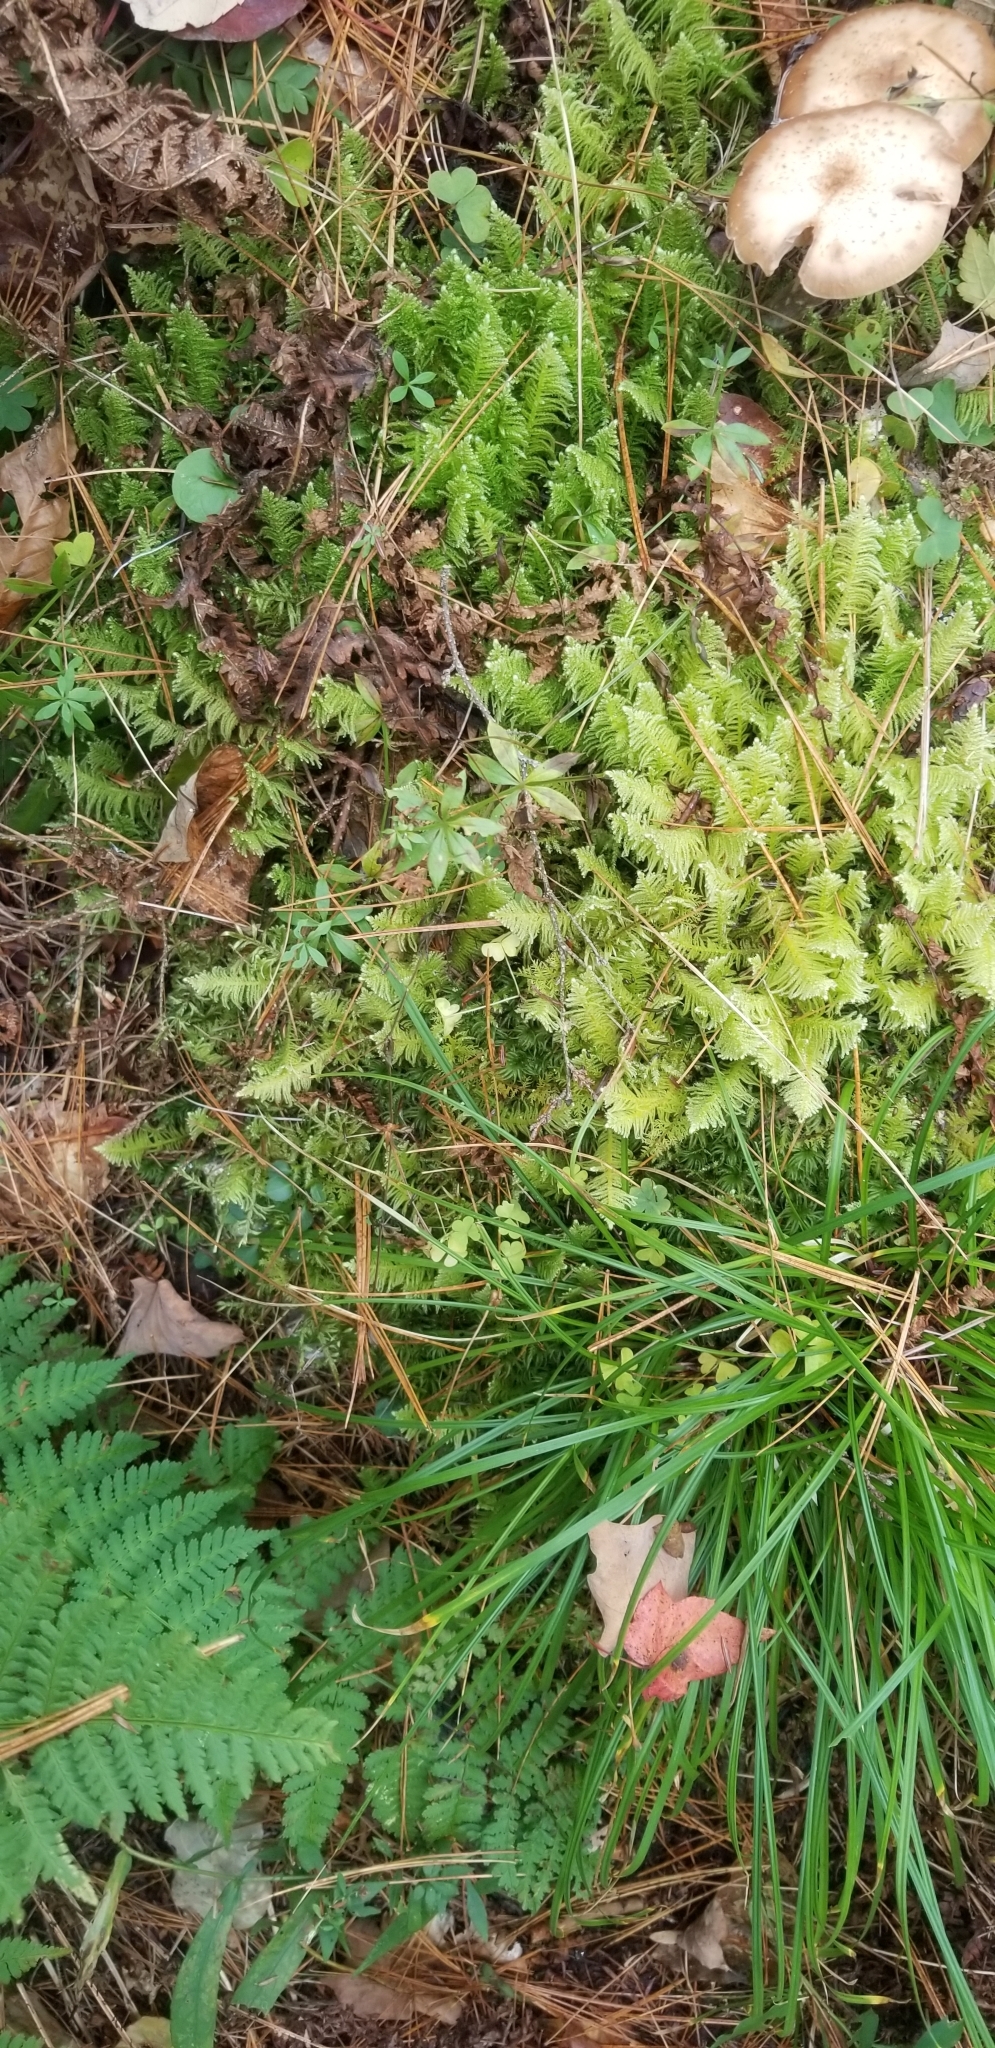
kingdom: Plantae
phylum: Bryophyta
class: Bryopsida
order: Hypnales
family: Pylaisiaceae
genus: Ptilium
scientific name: Ptilium crista-castrensis
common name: Knight's plume moss
